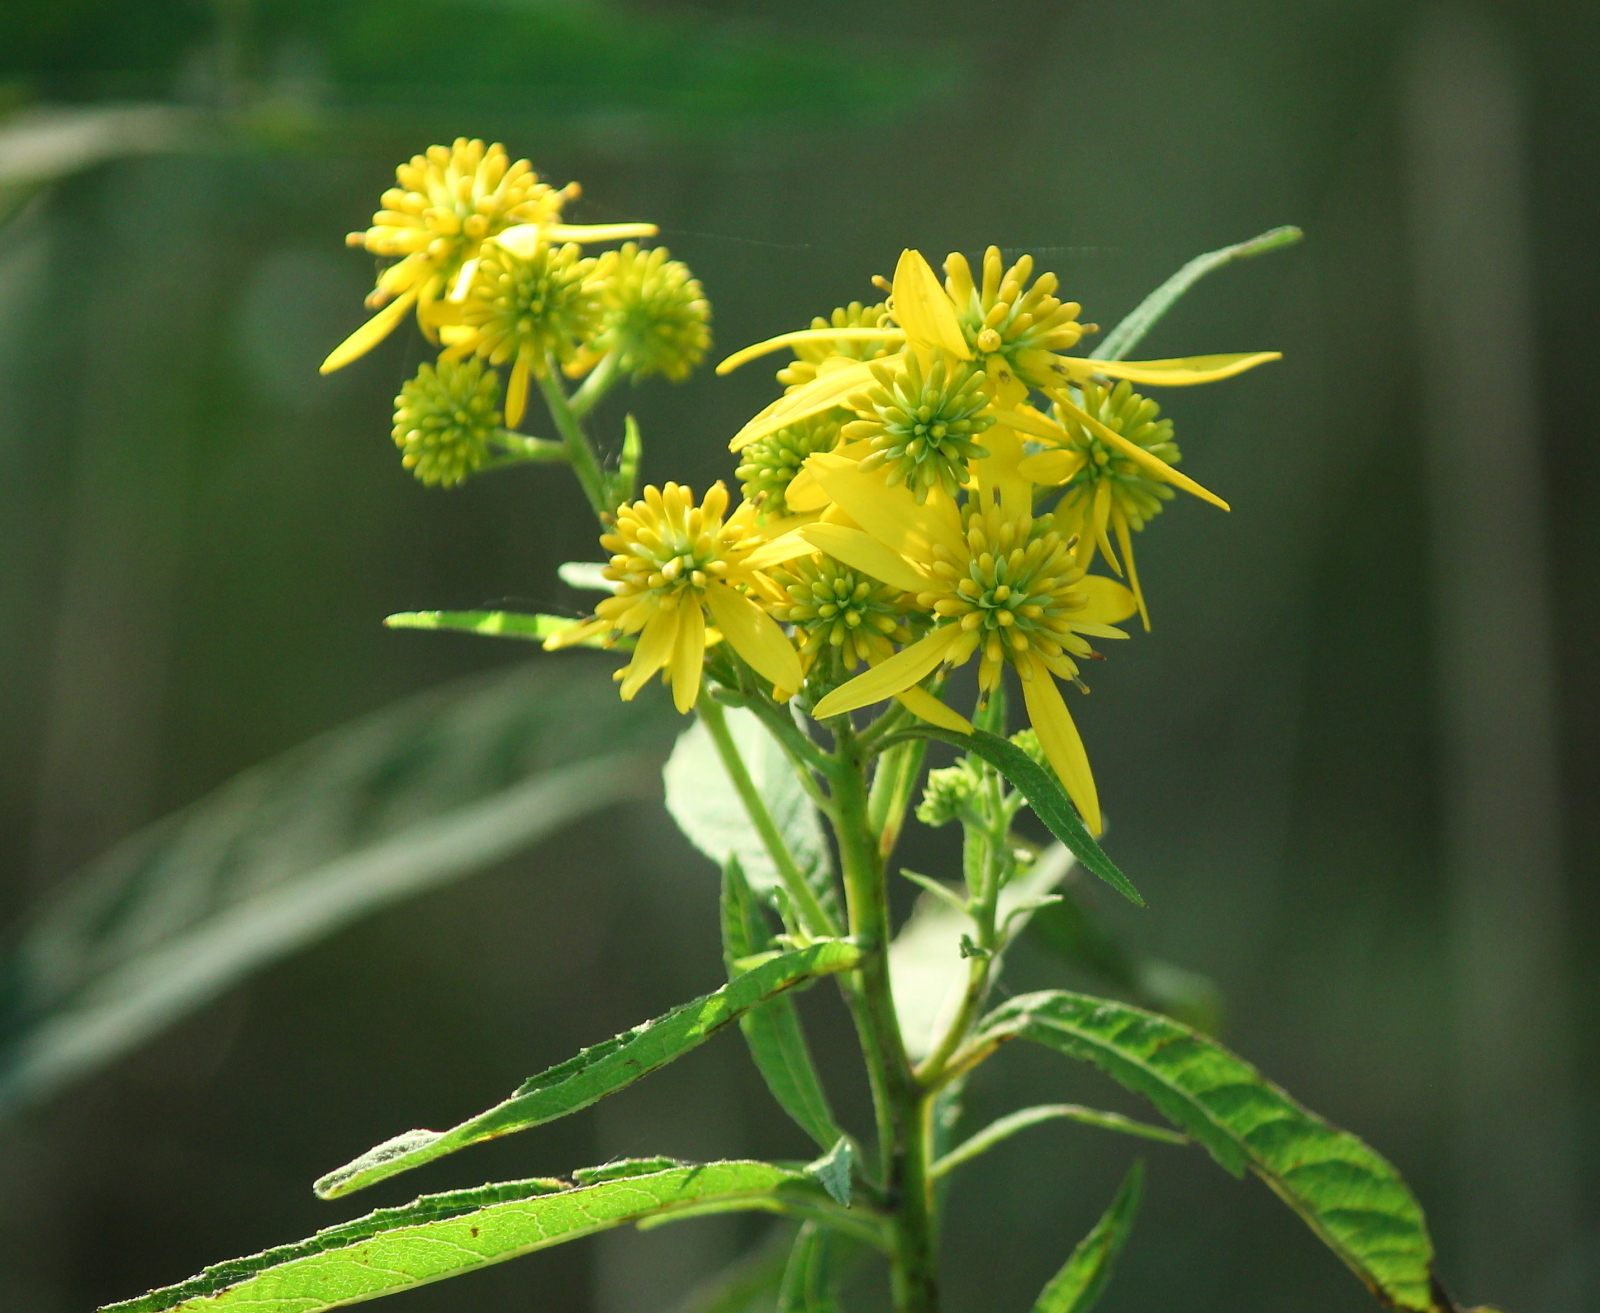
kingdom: Plantae
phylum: Tracheophyta
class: Magnoliopsida
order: Asterales
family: Asteraceae
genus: Verbesina
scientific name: Verbesina alternifolia
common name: Wingstem
